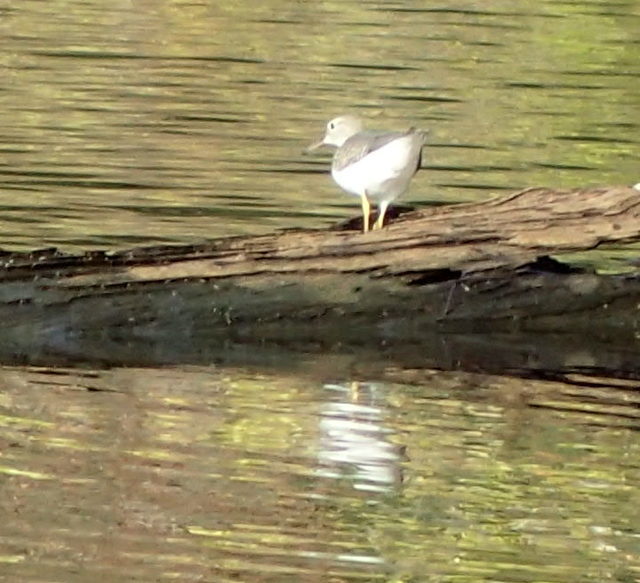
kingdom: Animalia
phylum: Chordata
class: Aves
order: Charadriiformes
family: Scolopacidae
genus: Actitis
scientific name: Actitis macularius
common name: Spotted sandpiper
